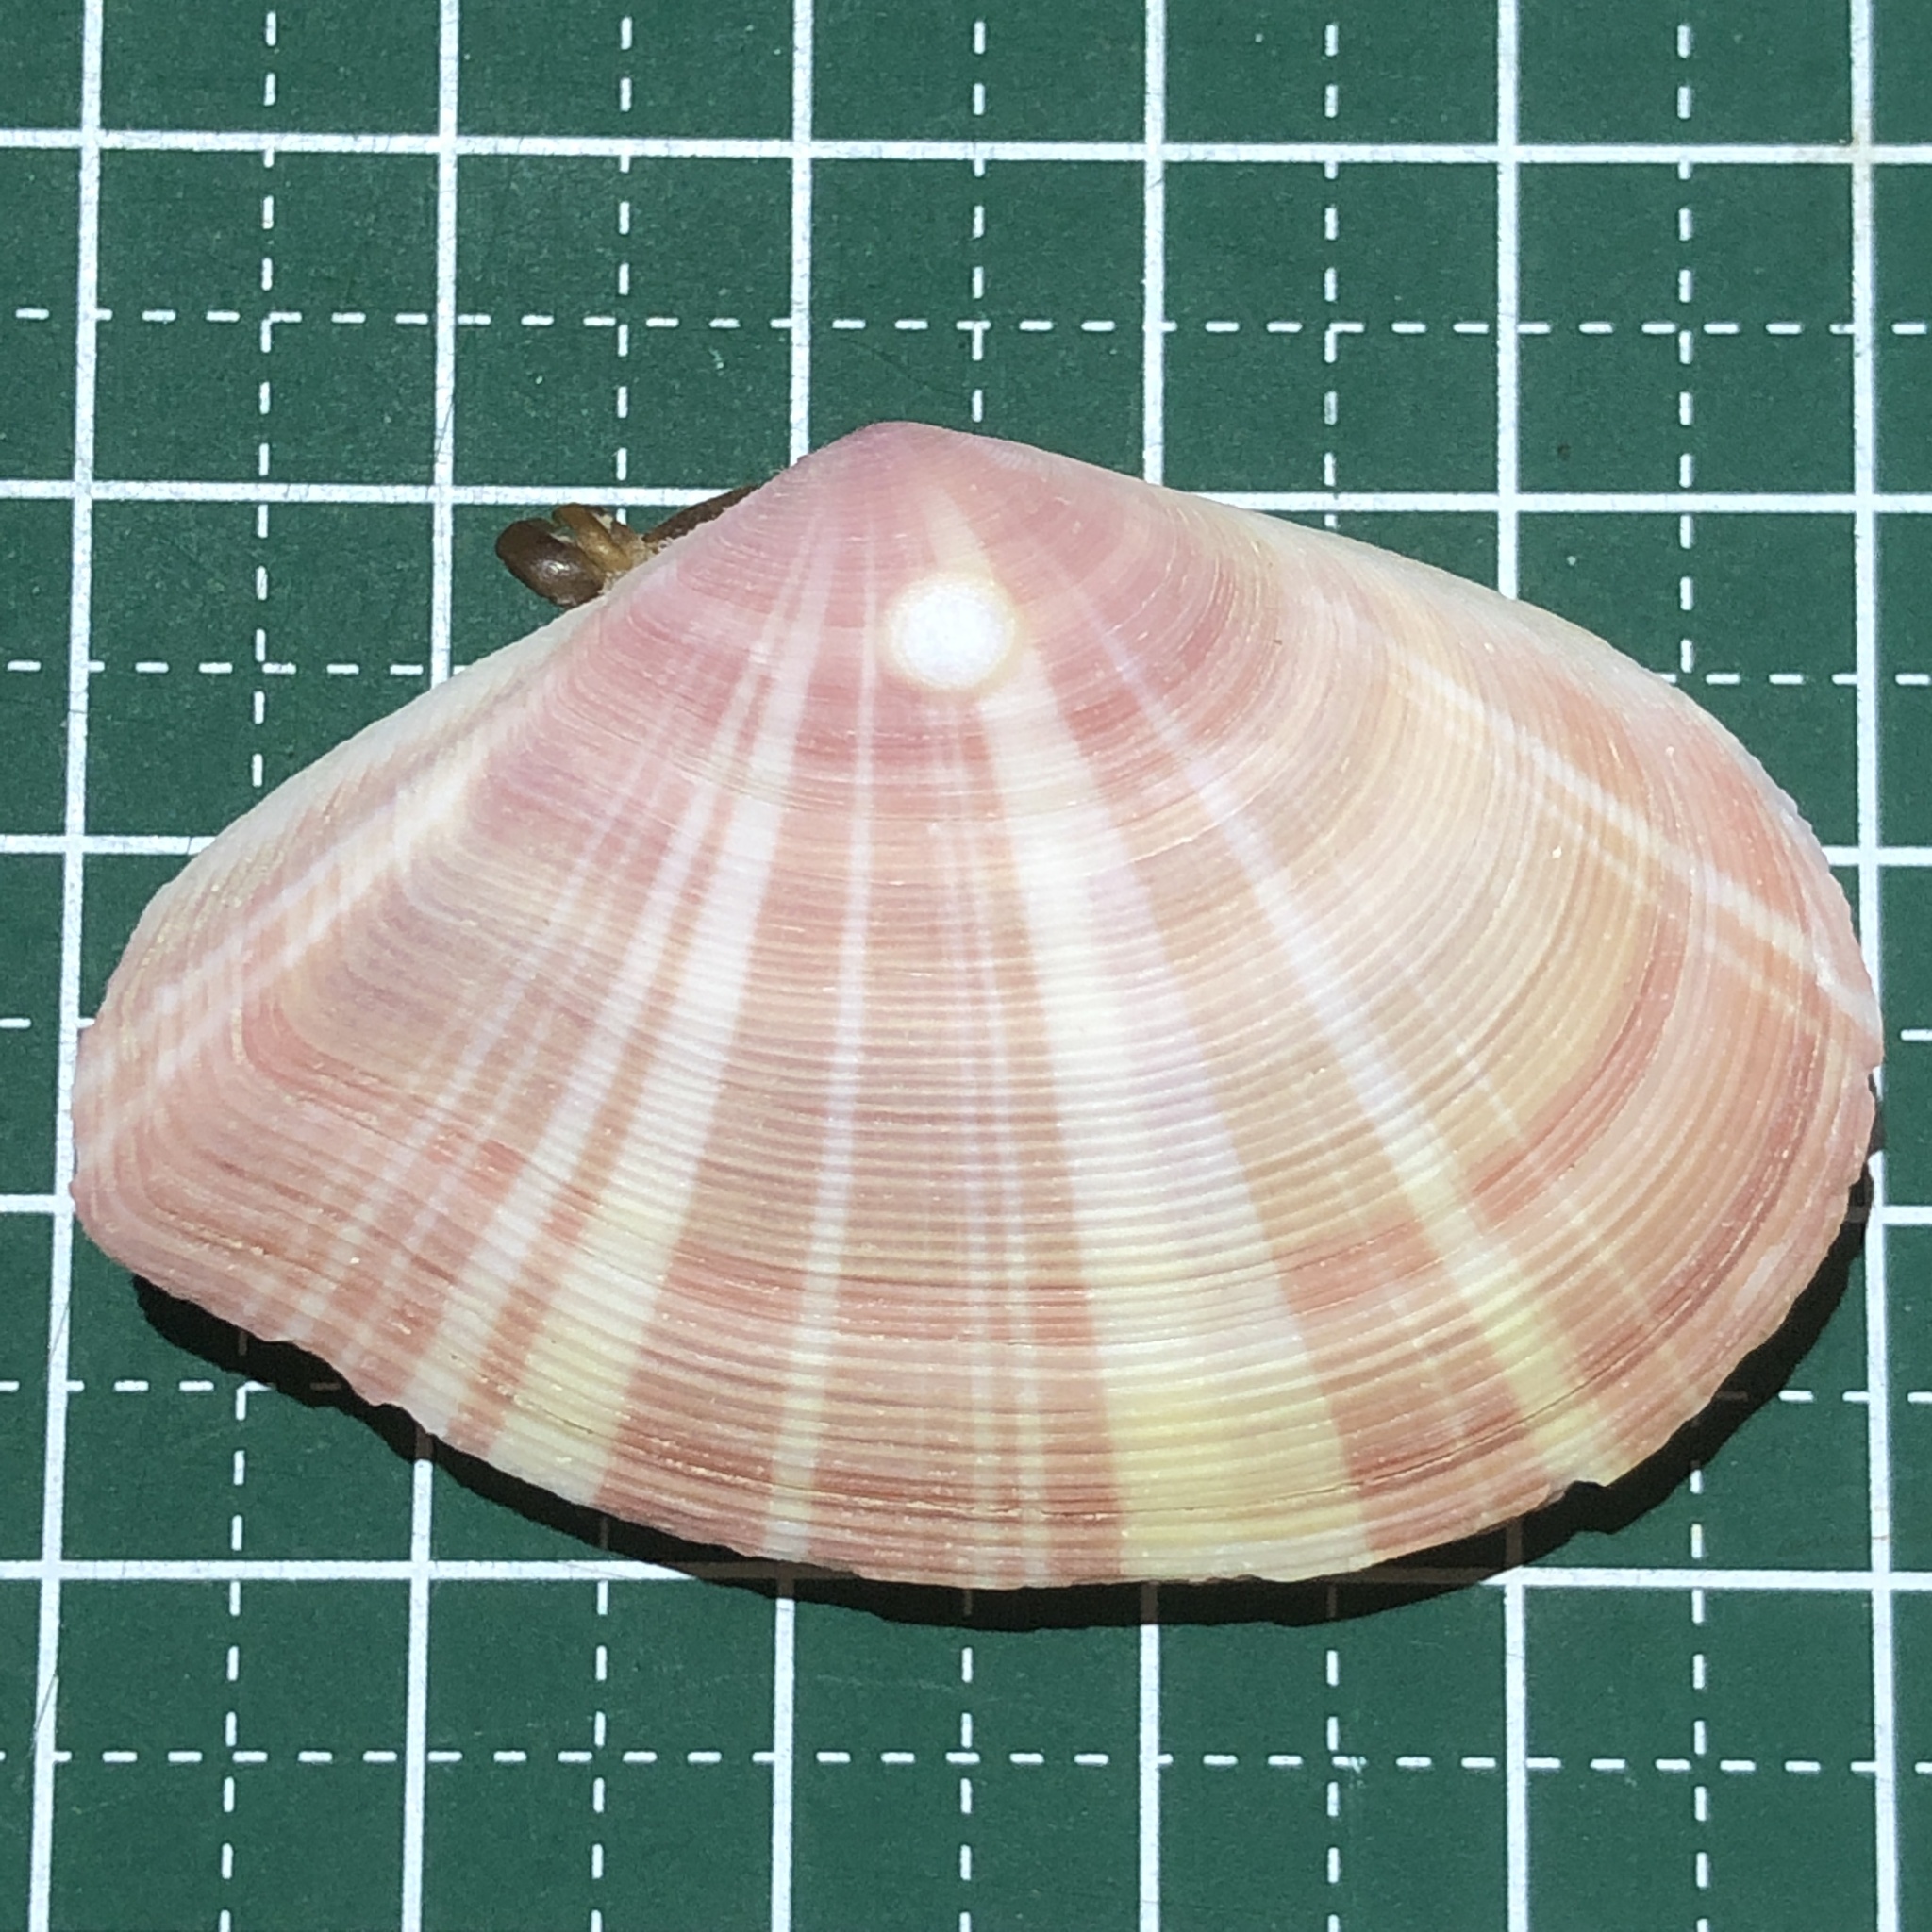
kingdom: Animalia
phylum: Mollusca
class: Bivalvia
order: Cardiida
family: Tellinidae
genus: Tellinella
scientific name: Tellinella virgata
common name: Striped tellin
